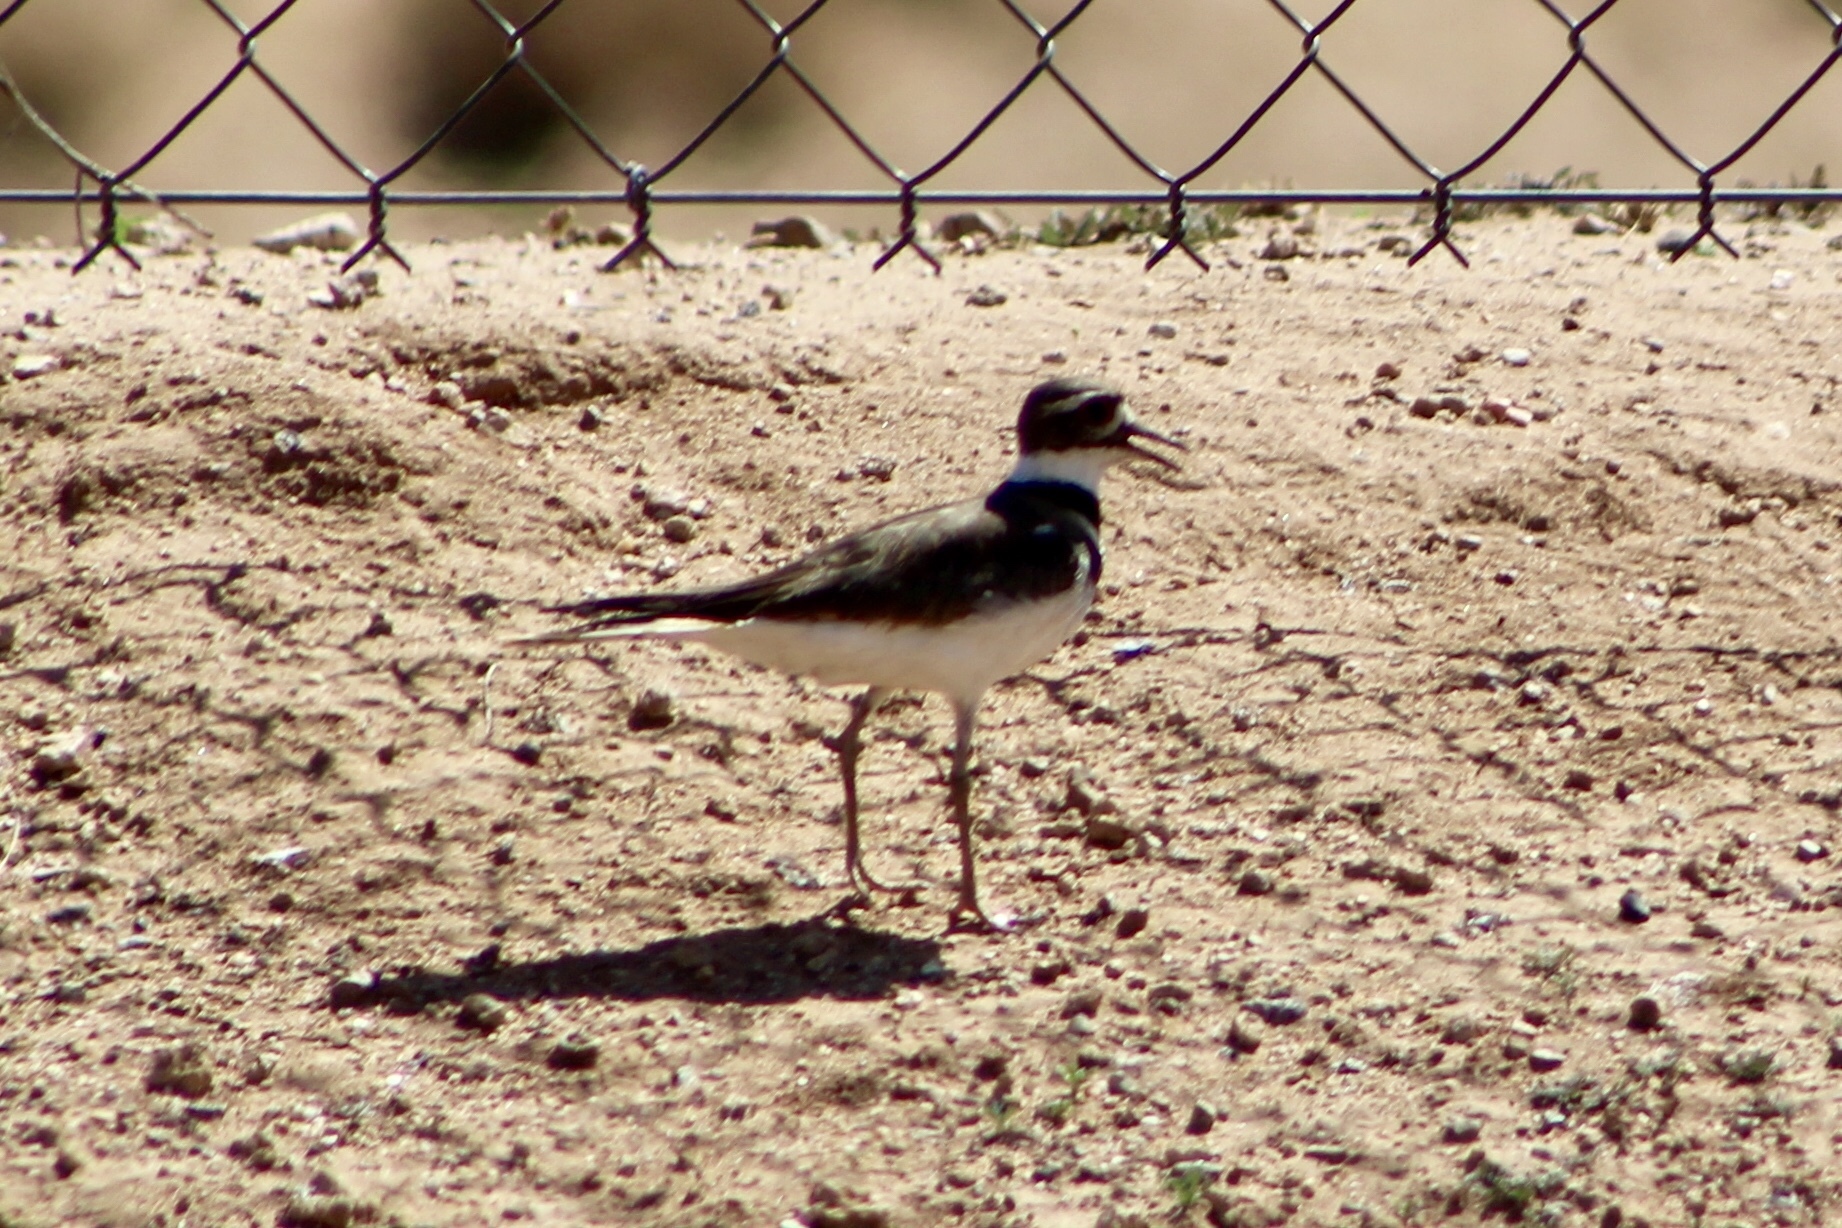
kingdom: Animalia
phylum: Chordata
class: Aves
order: Charadriiformes
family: Charadriidae
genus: Charadrius
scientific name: Charadrius vociferus
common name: Killdeer
